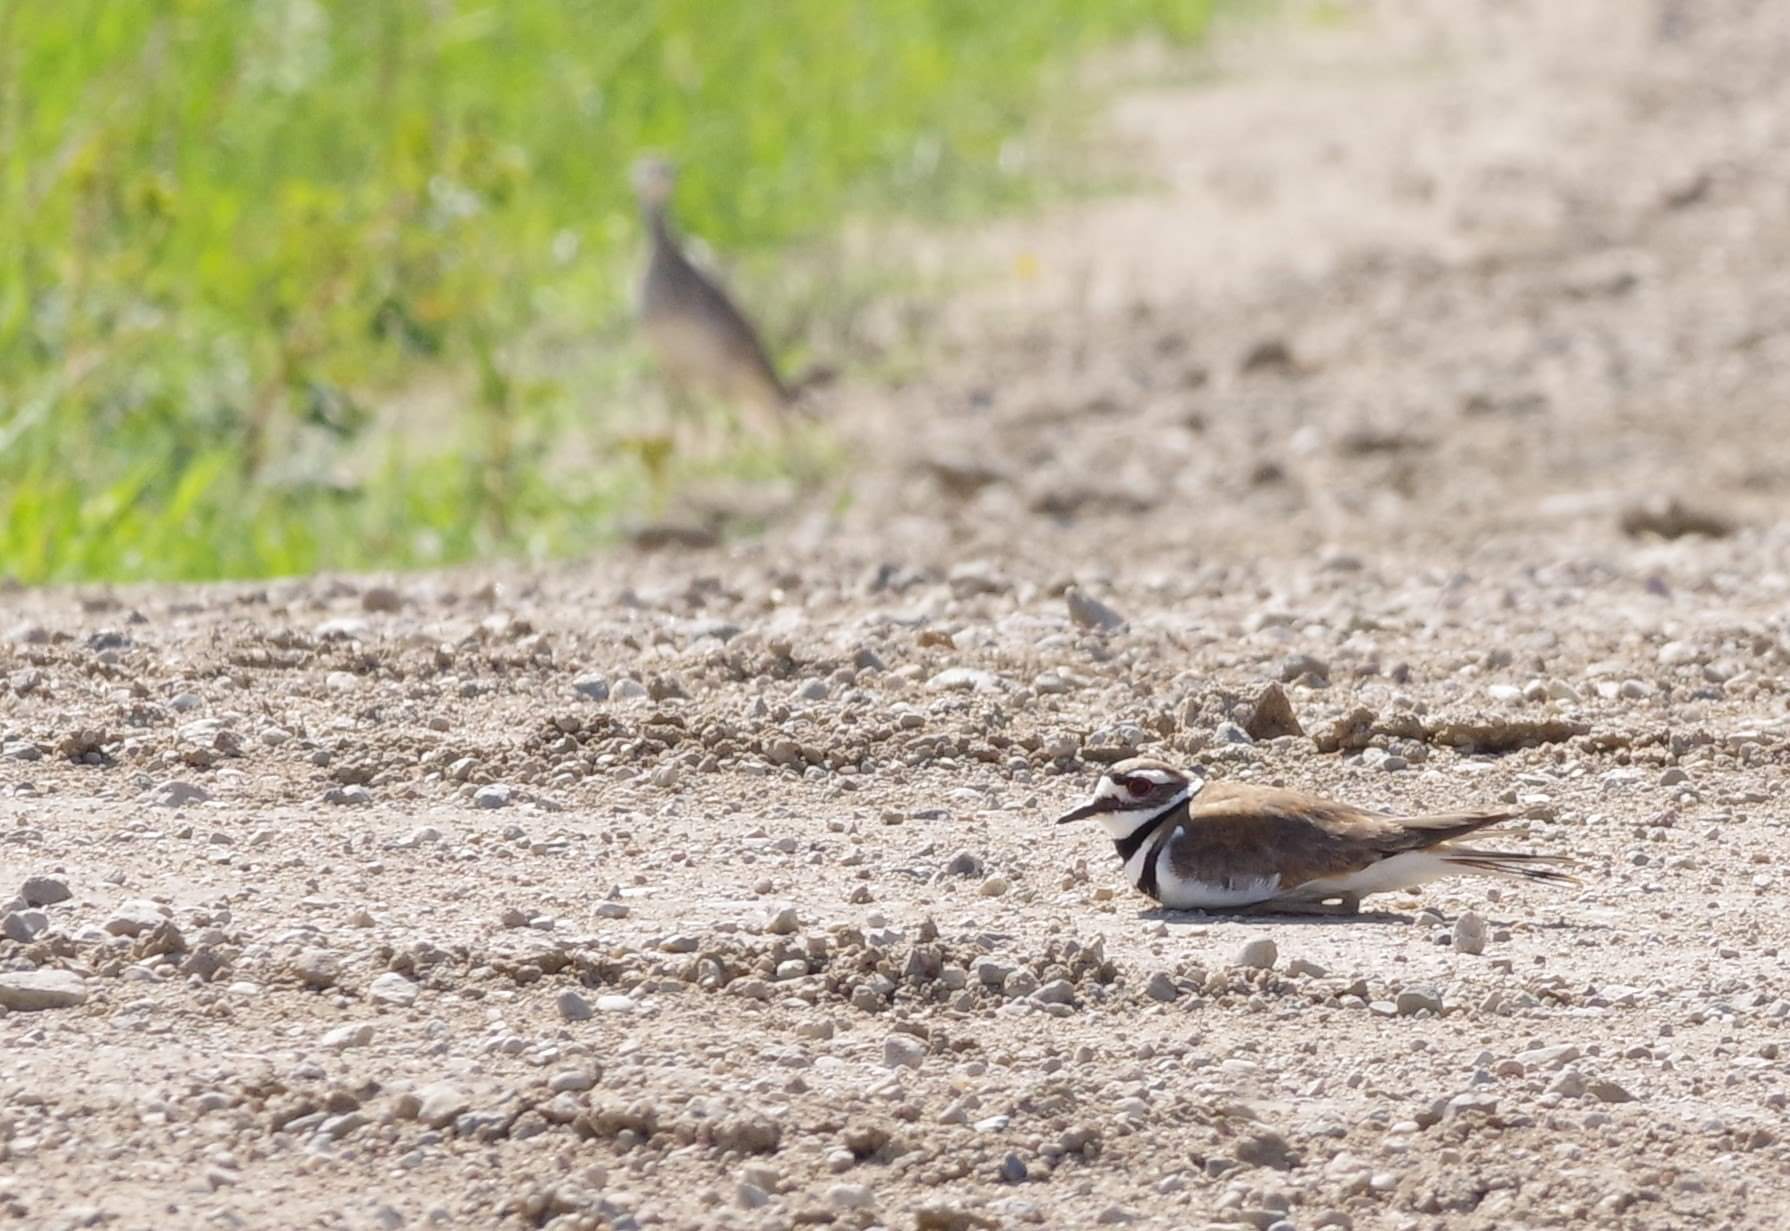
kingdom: Animalia
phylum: Chordata
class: Aves
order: Charadriiformes
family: Charadriidae
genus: Charadrius
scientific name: Charadrius vociferus
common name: Killdeer
